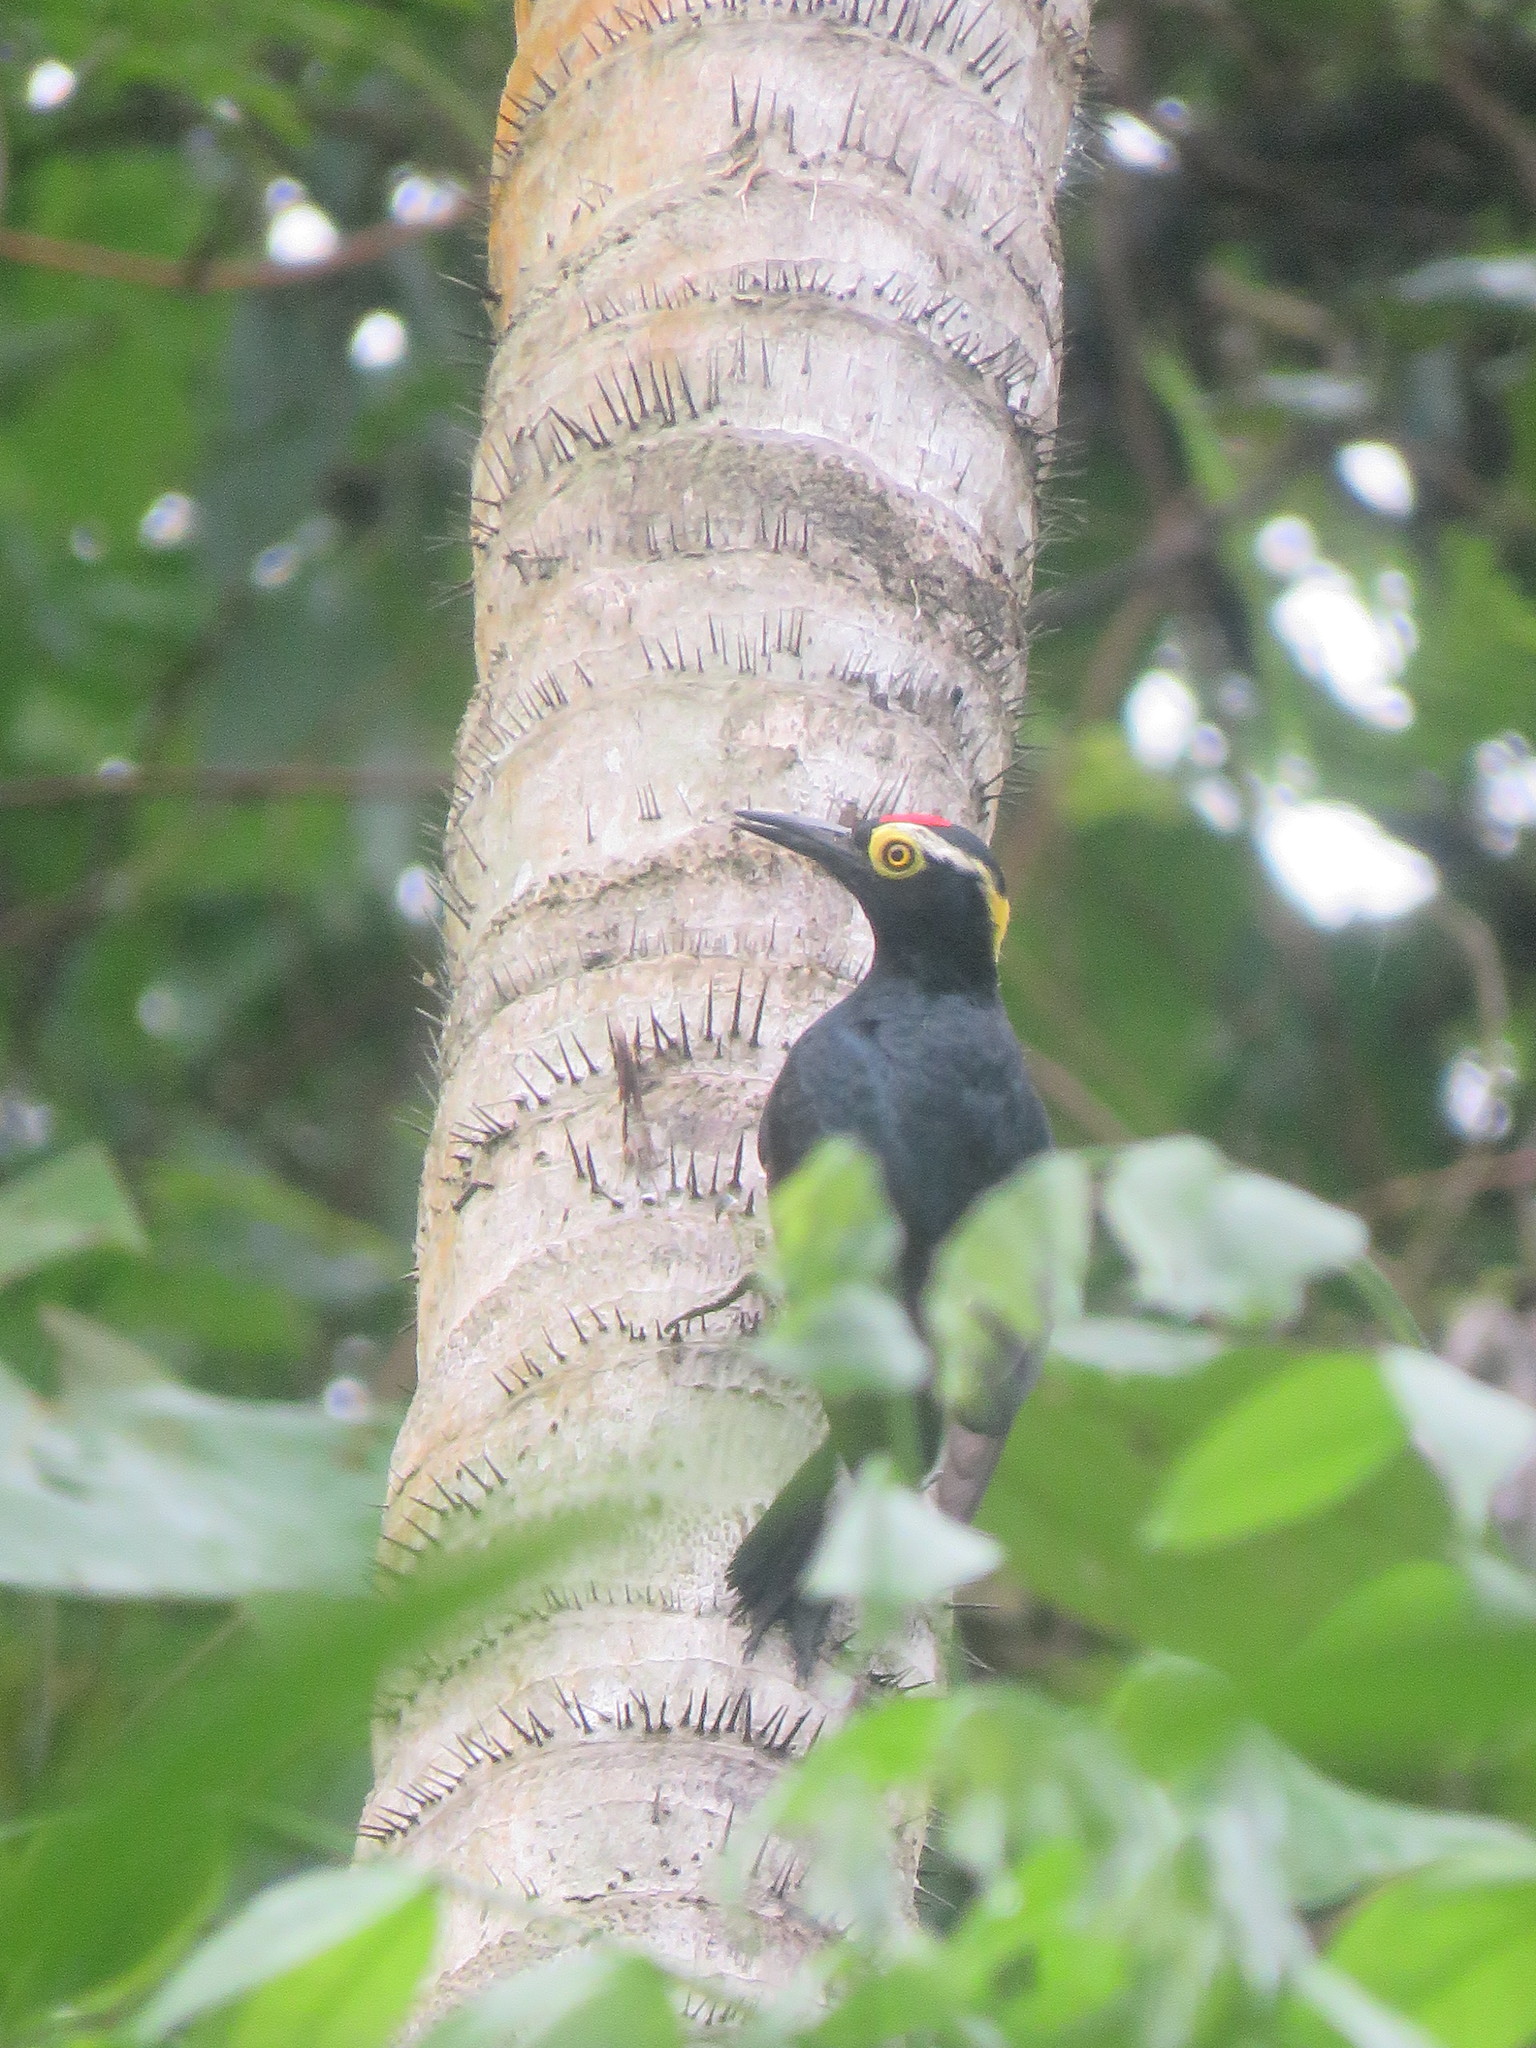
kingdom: Animalia
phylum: Chordata
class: Aves
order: Piciformes
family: Picidae
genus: Melanerpes
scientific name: Melanerpes cruentatus
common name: Yellow-tufted woodpecker
